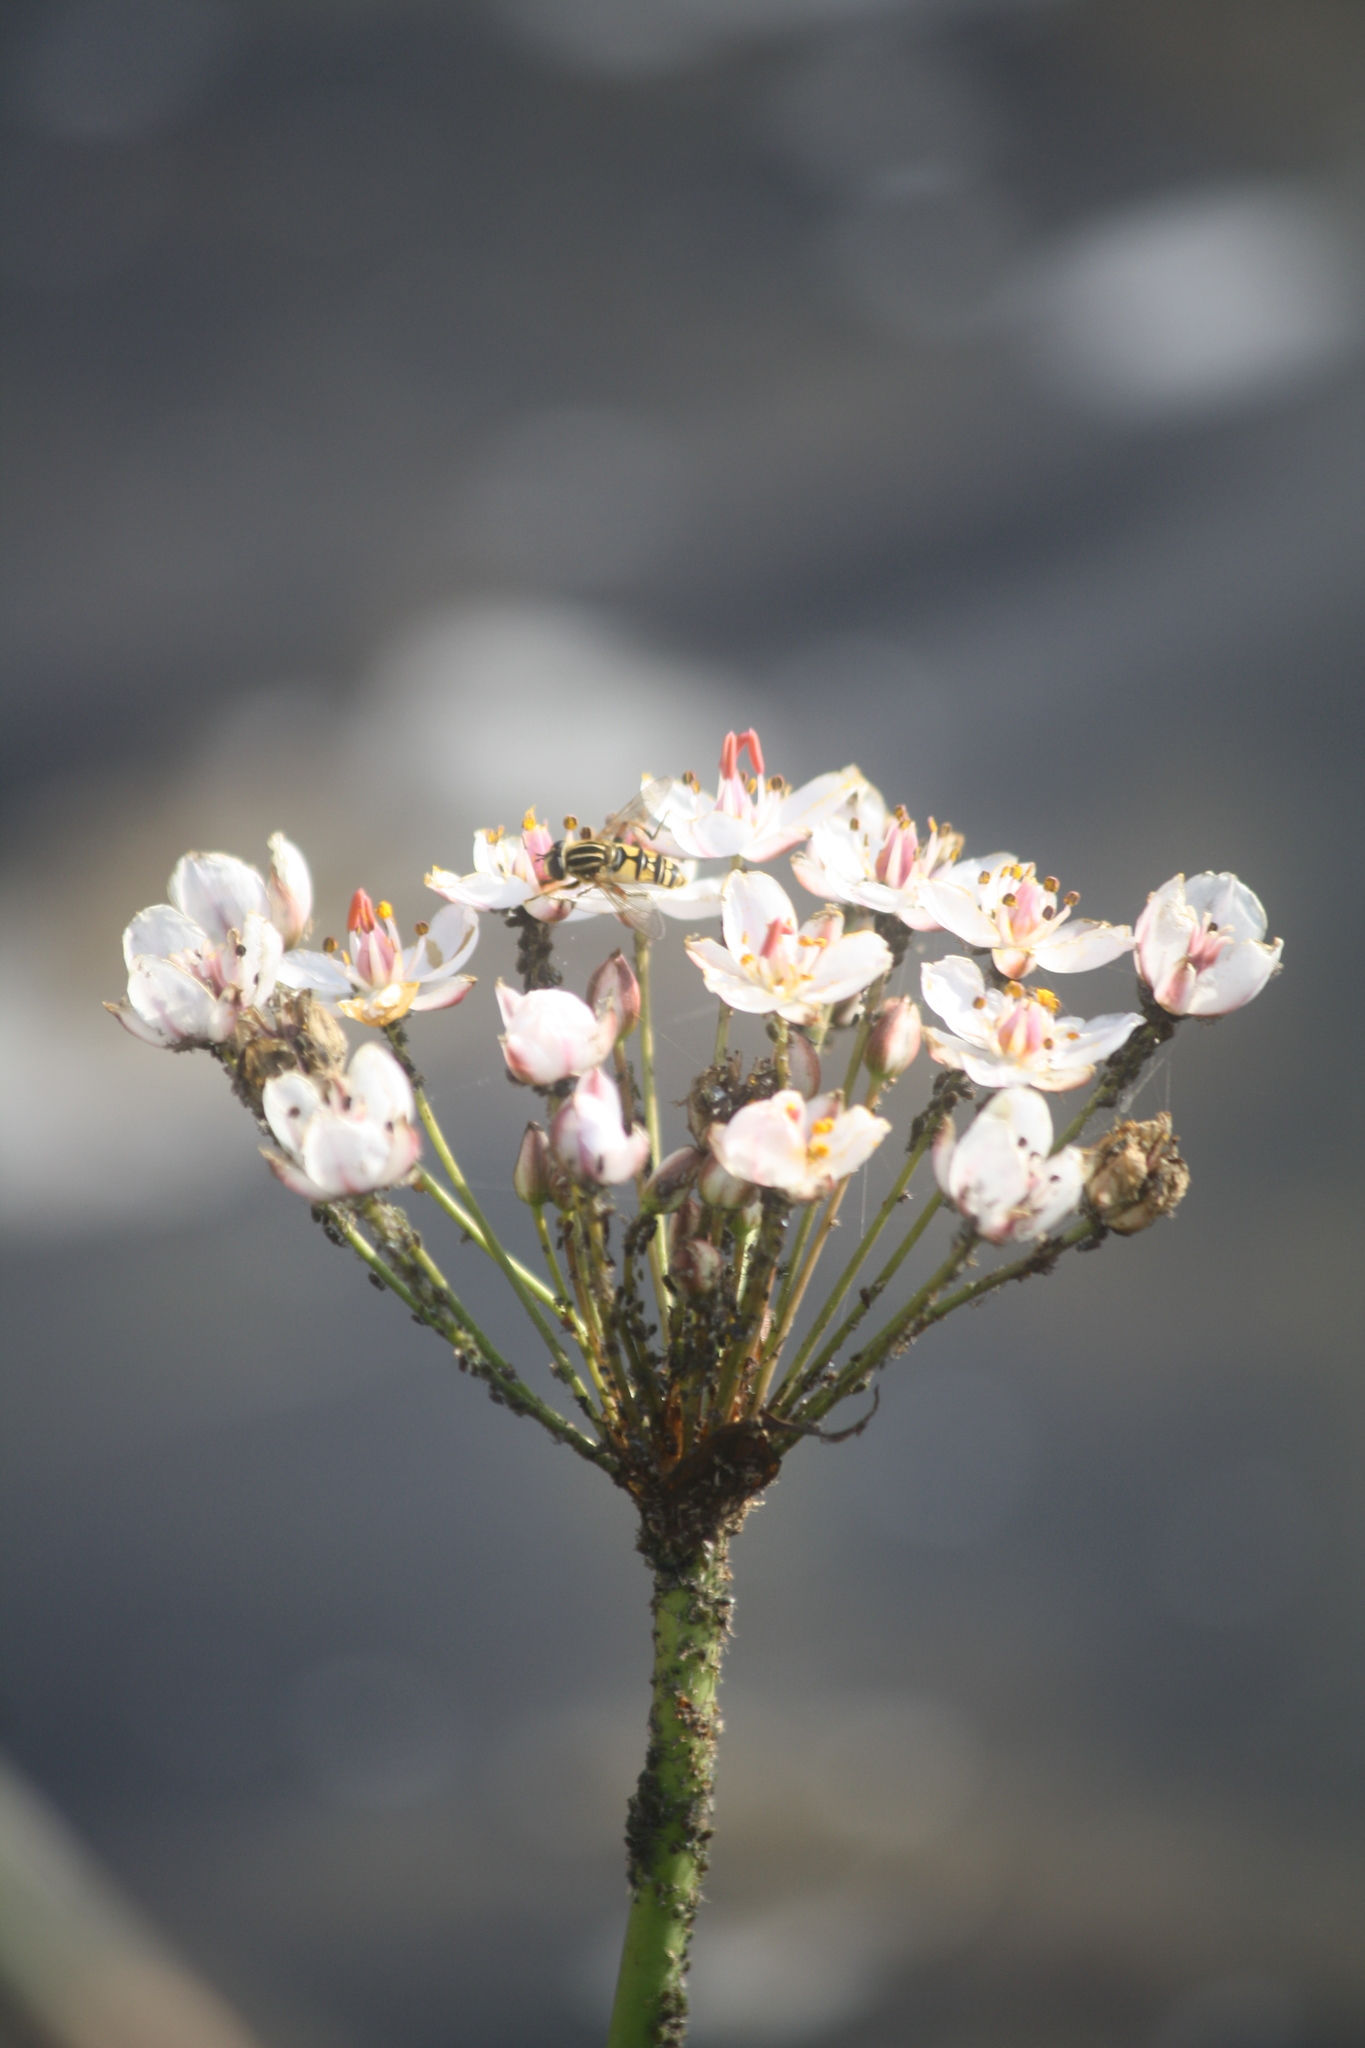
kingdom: Plantae
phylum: Tracheophyta
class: Liliopsida
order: Alismatales
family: Butomaceae
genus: Butomus
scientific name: Butomus umbellatus
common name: Flowering-rush
